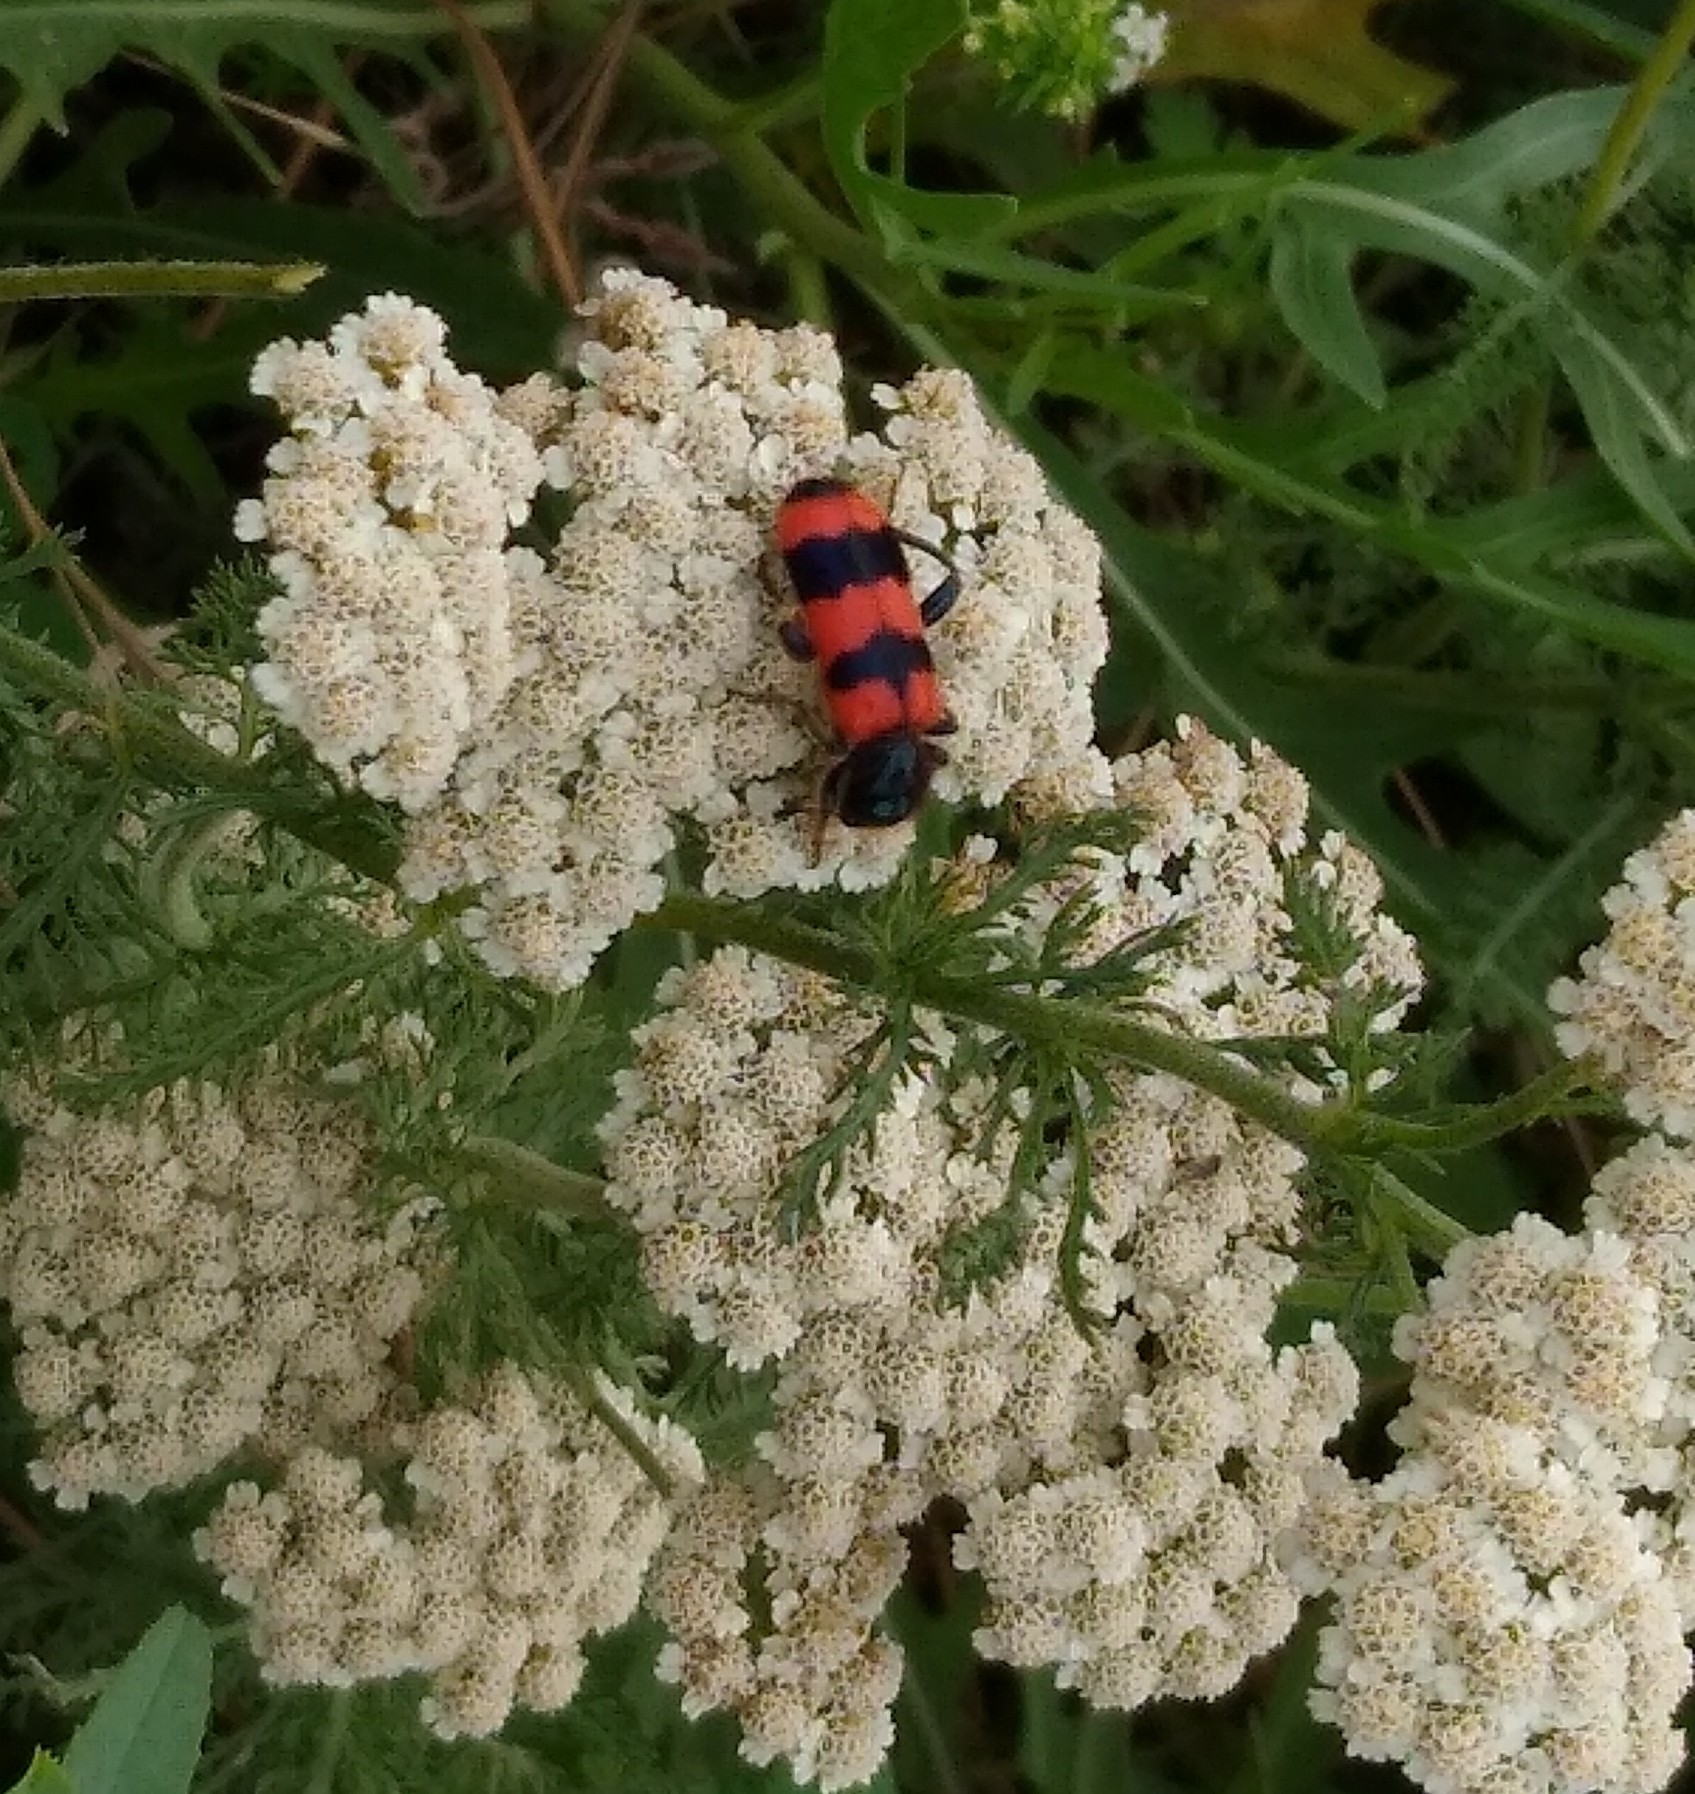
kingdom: Animalia
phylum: Arthropoda
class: Insecta
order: Coleoptera
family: Cleridae
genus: Trichodes
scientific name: Trichodes apiarius
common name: Bee-eating beetle
